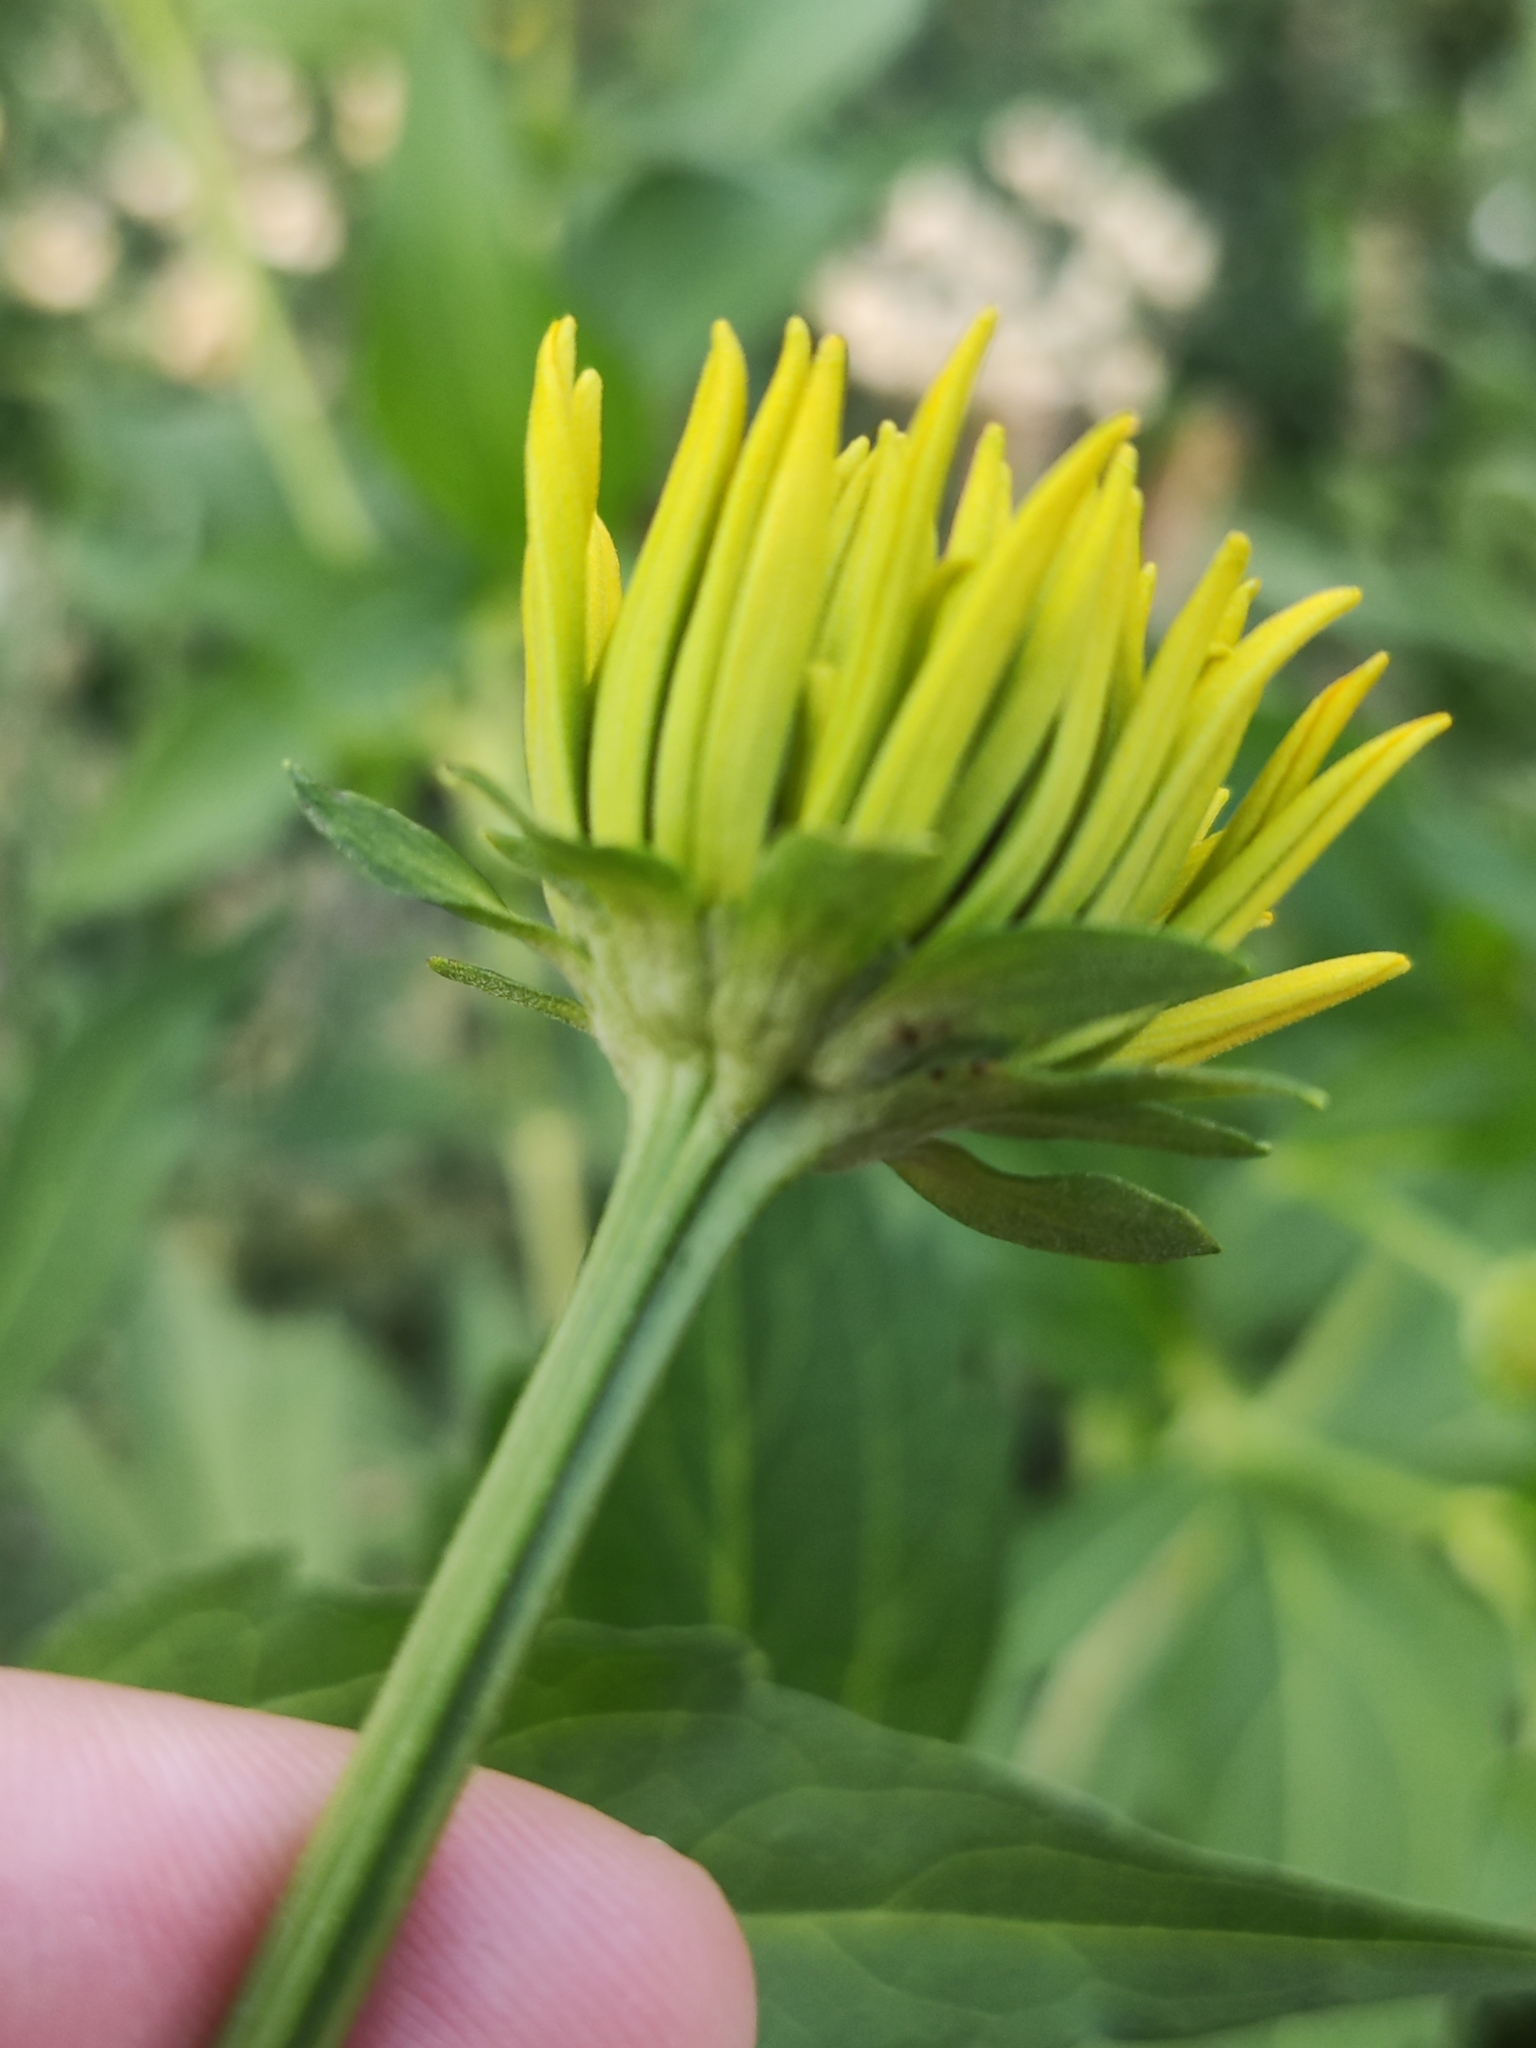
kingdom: Plantae
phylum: Tracheophyta
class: Magnoliopsida
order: Asterales
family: Asteraceae
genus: Rudbeckia
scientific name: Rudbeckia laciniata
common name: Coneflower
